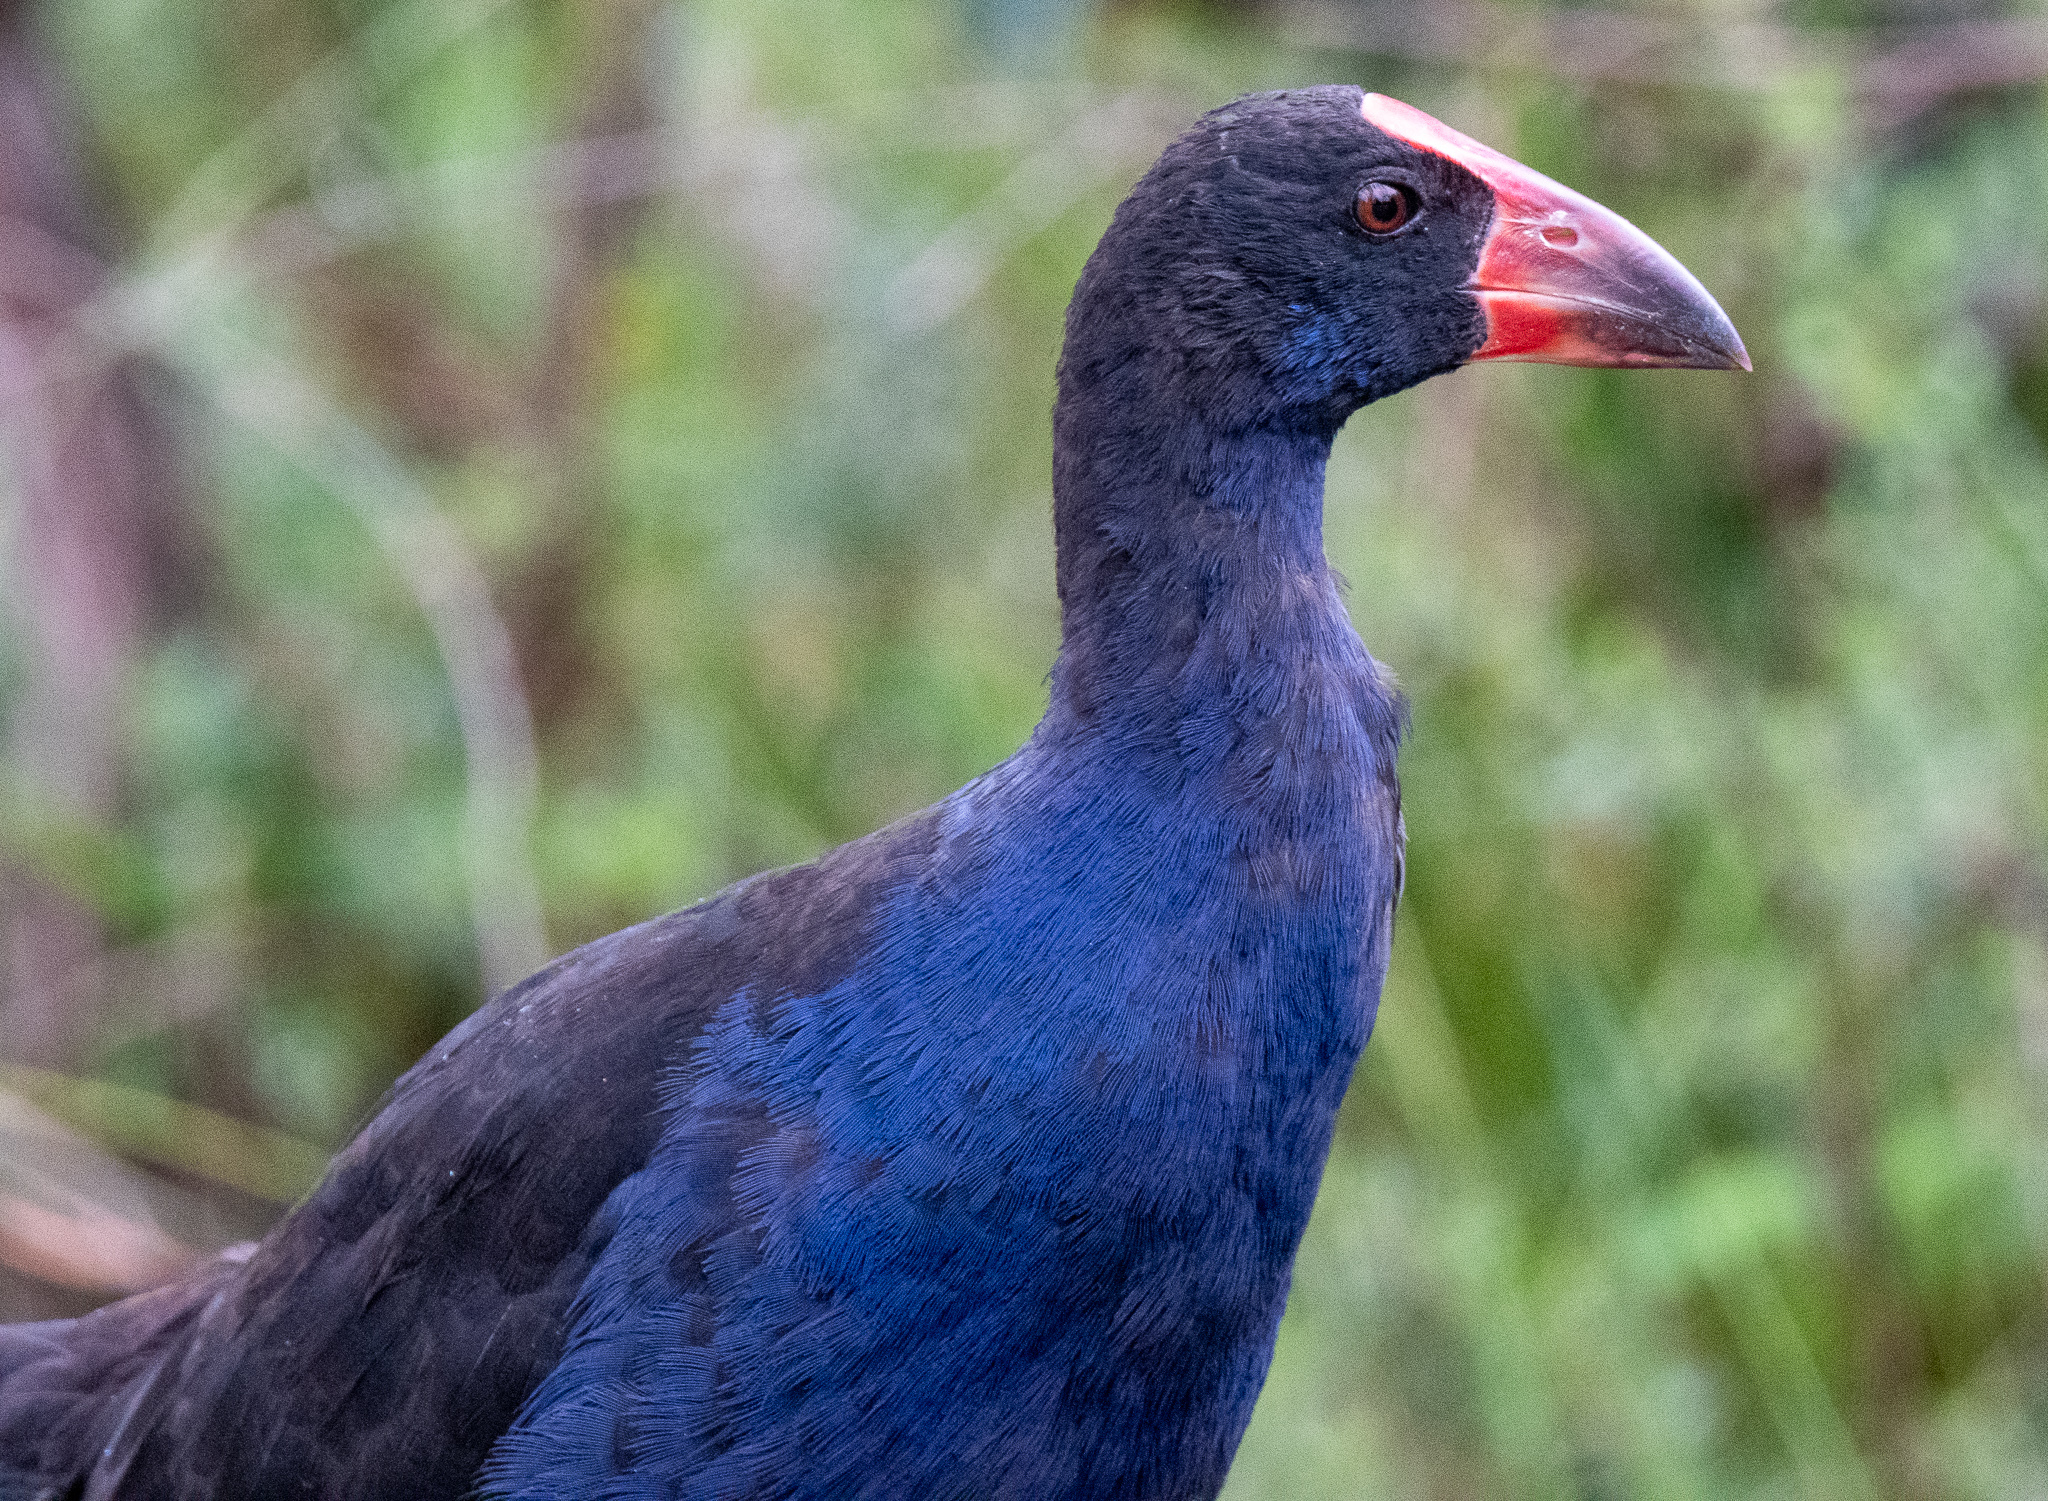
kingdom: Animalia
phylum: Chordata
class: Aves
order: Gruiformes
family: Rallidae
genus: Porphyrio
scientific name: Porphyrio melanotus
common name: Australasian swamphen
